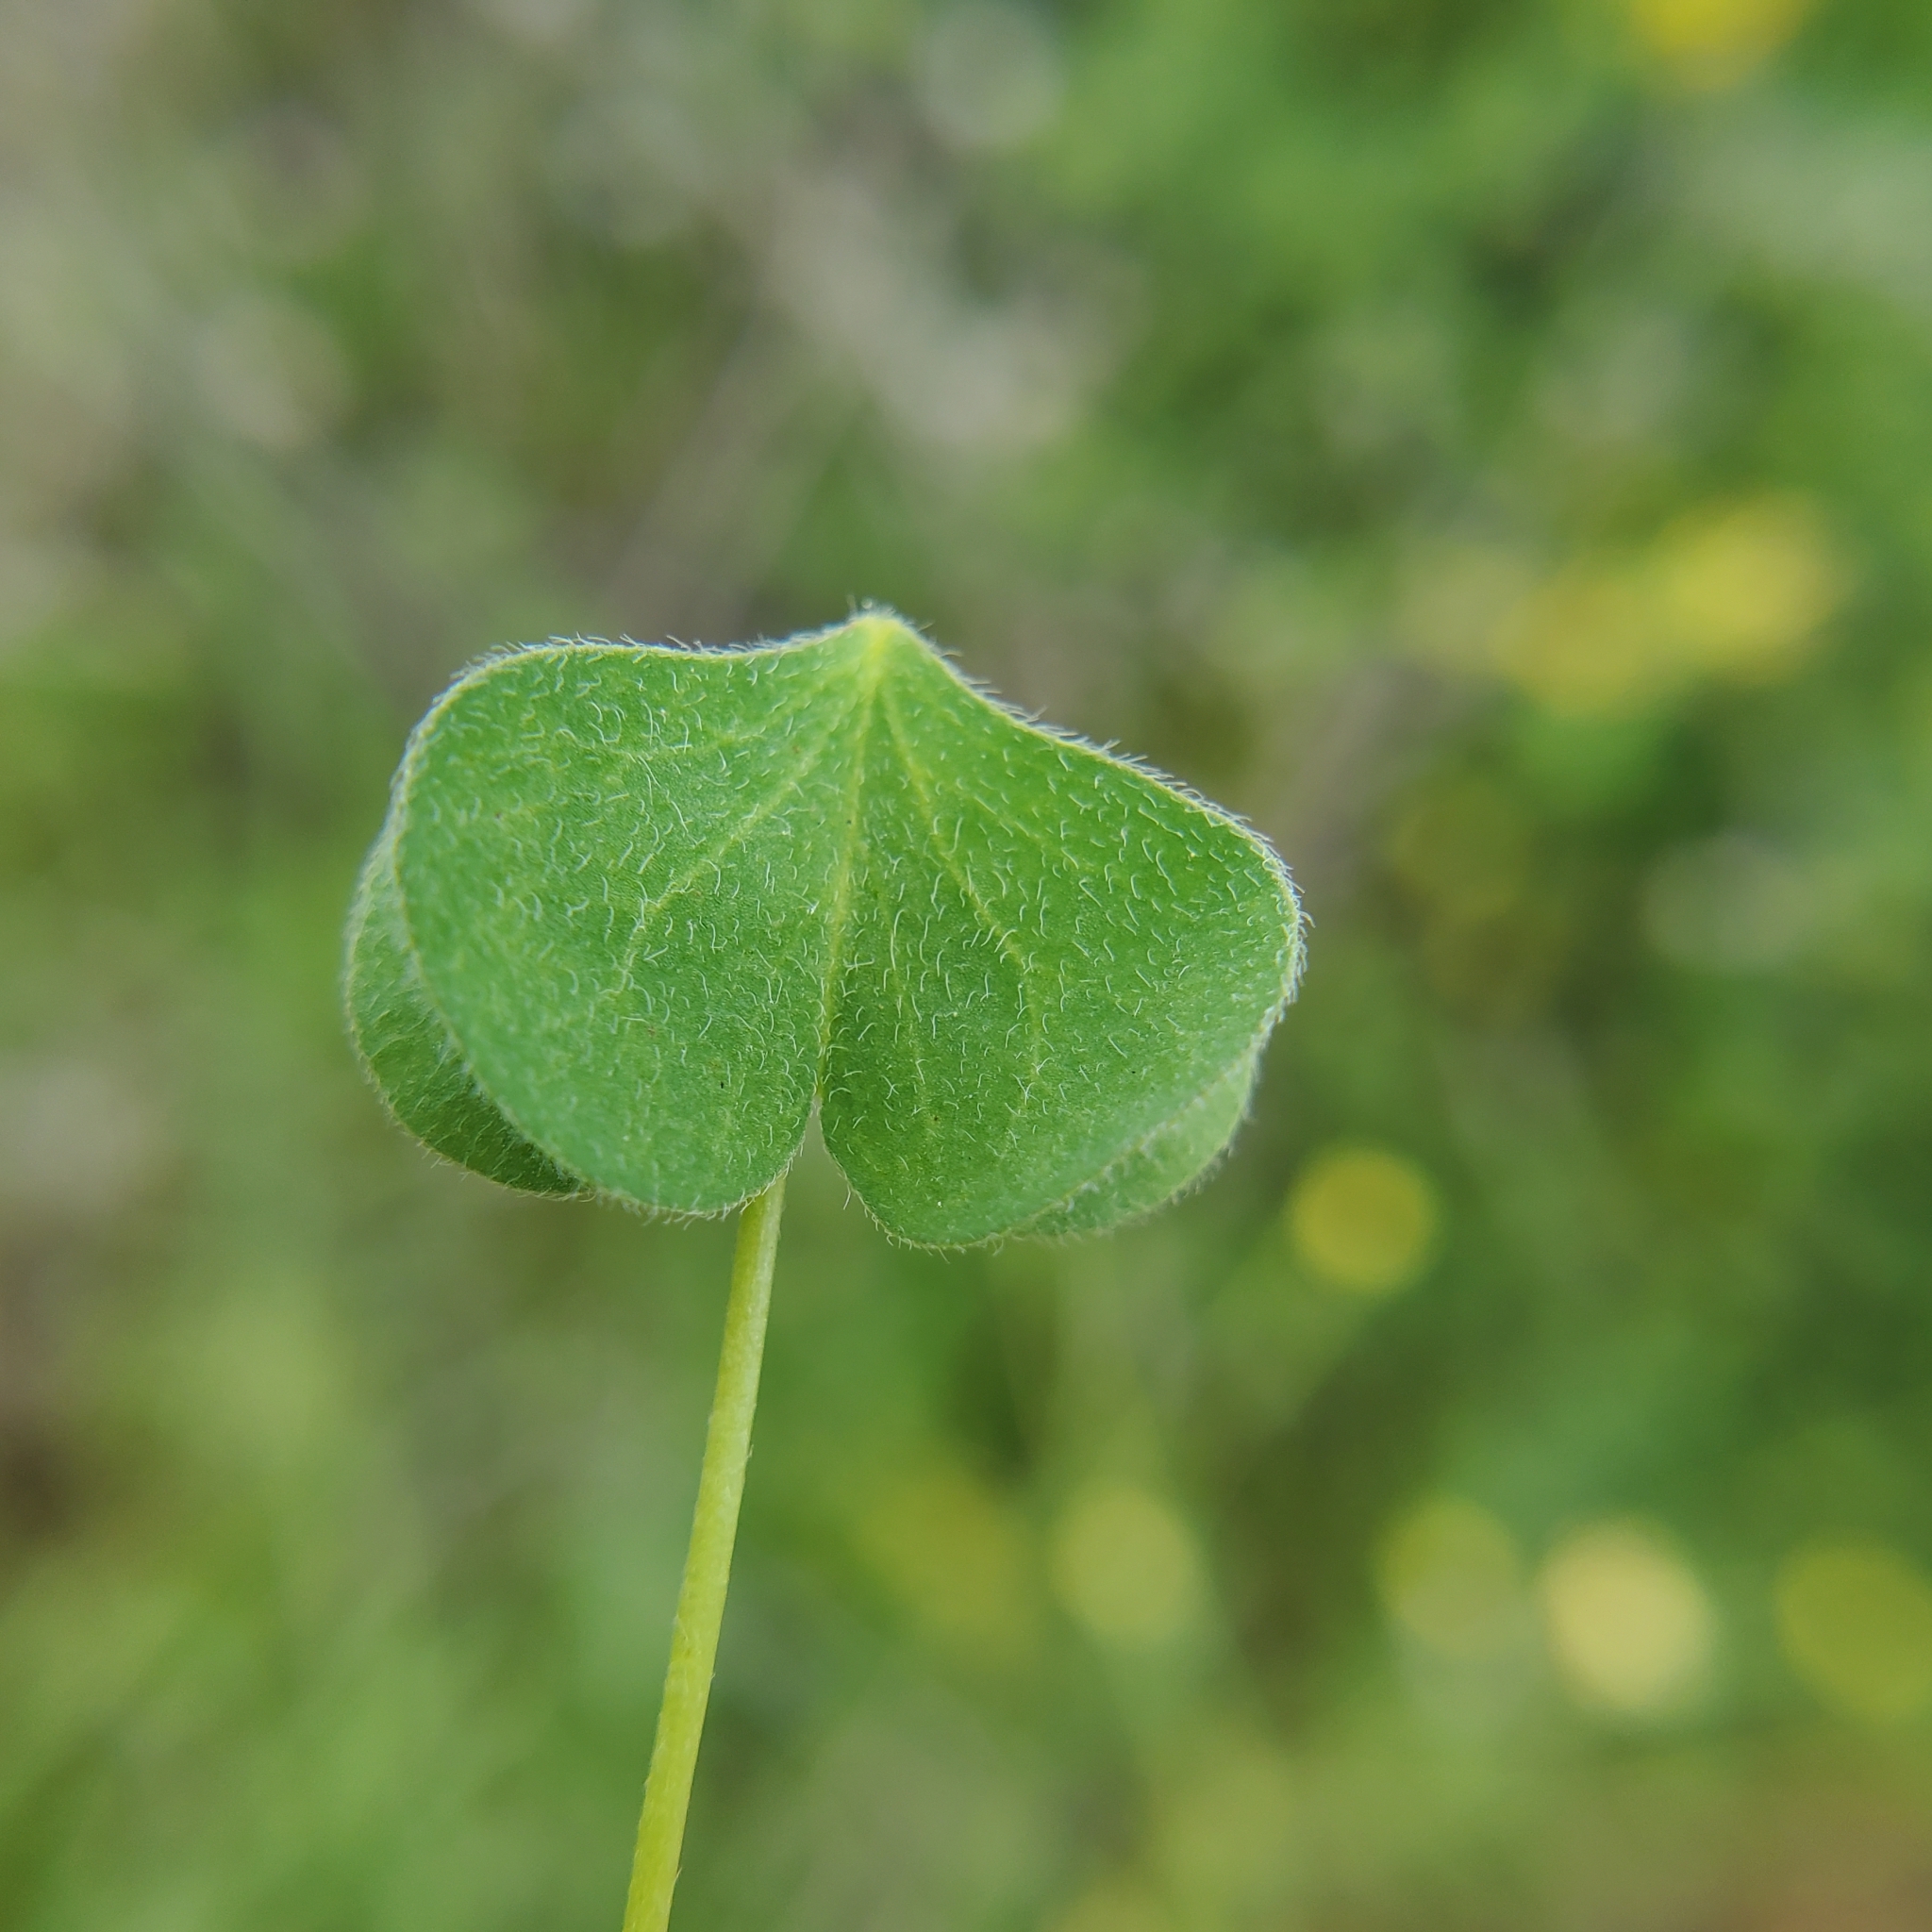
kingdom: Plantae
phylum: Tracheophyta
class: Magnoliopsida
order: Oxalidales
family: Oxalidaceae
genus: Oxalis
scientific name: Oxalis californica
